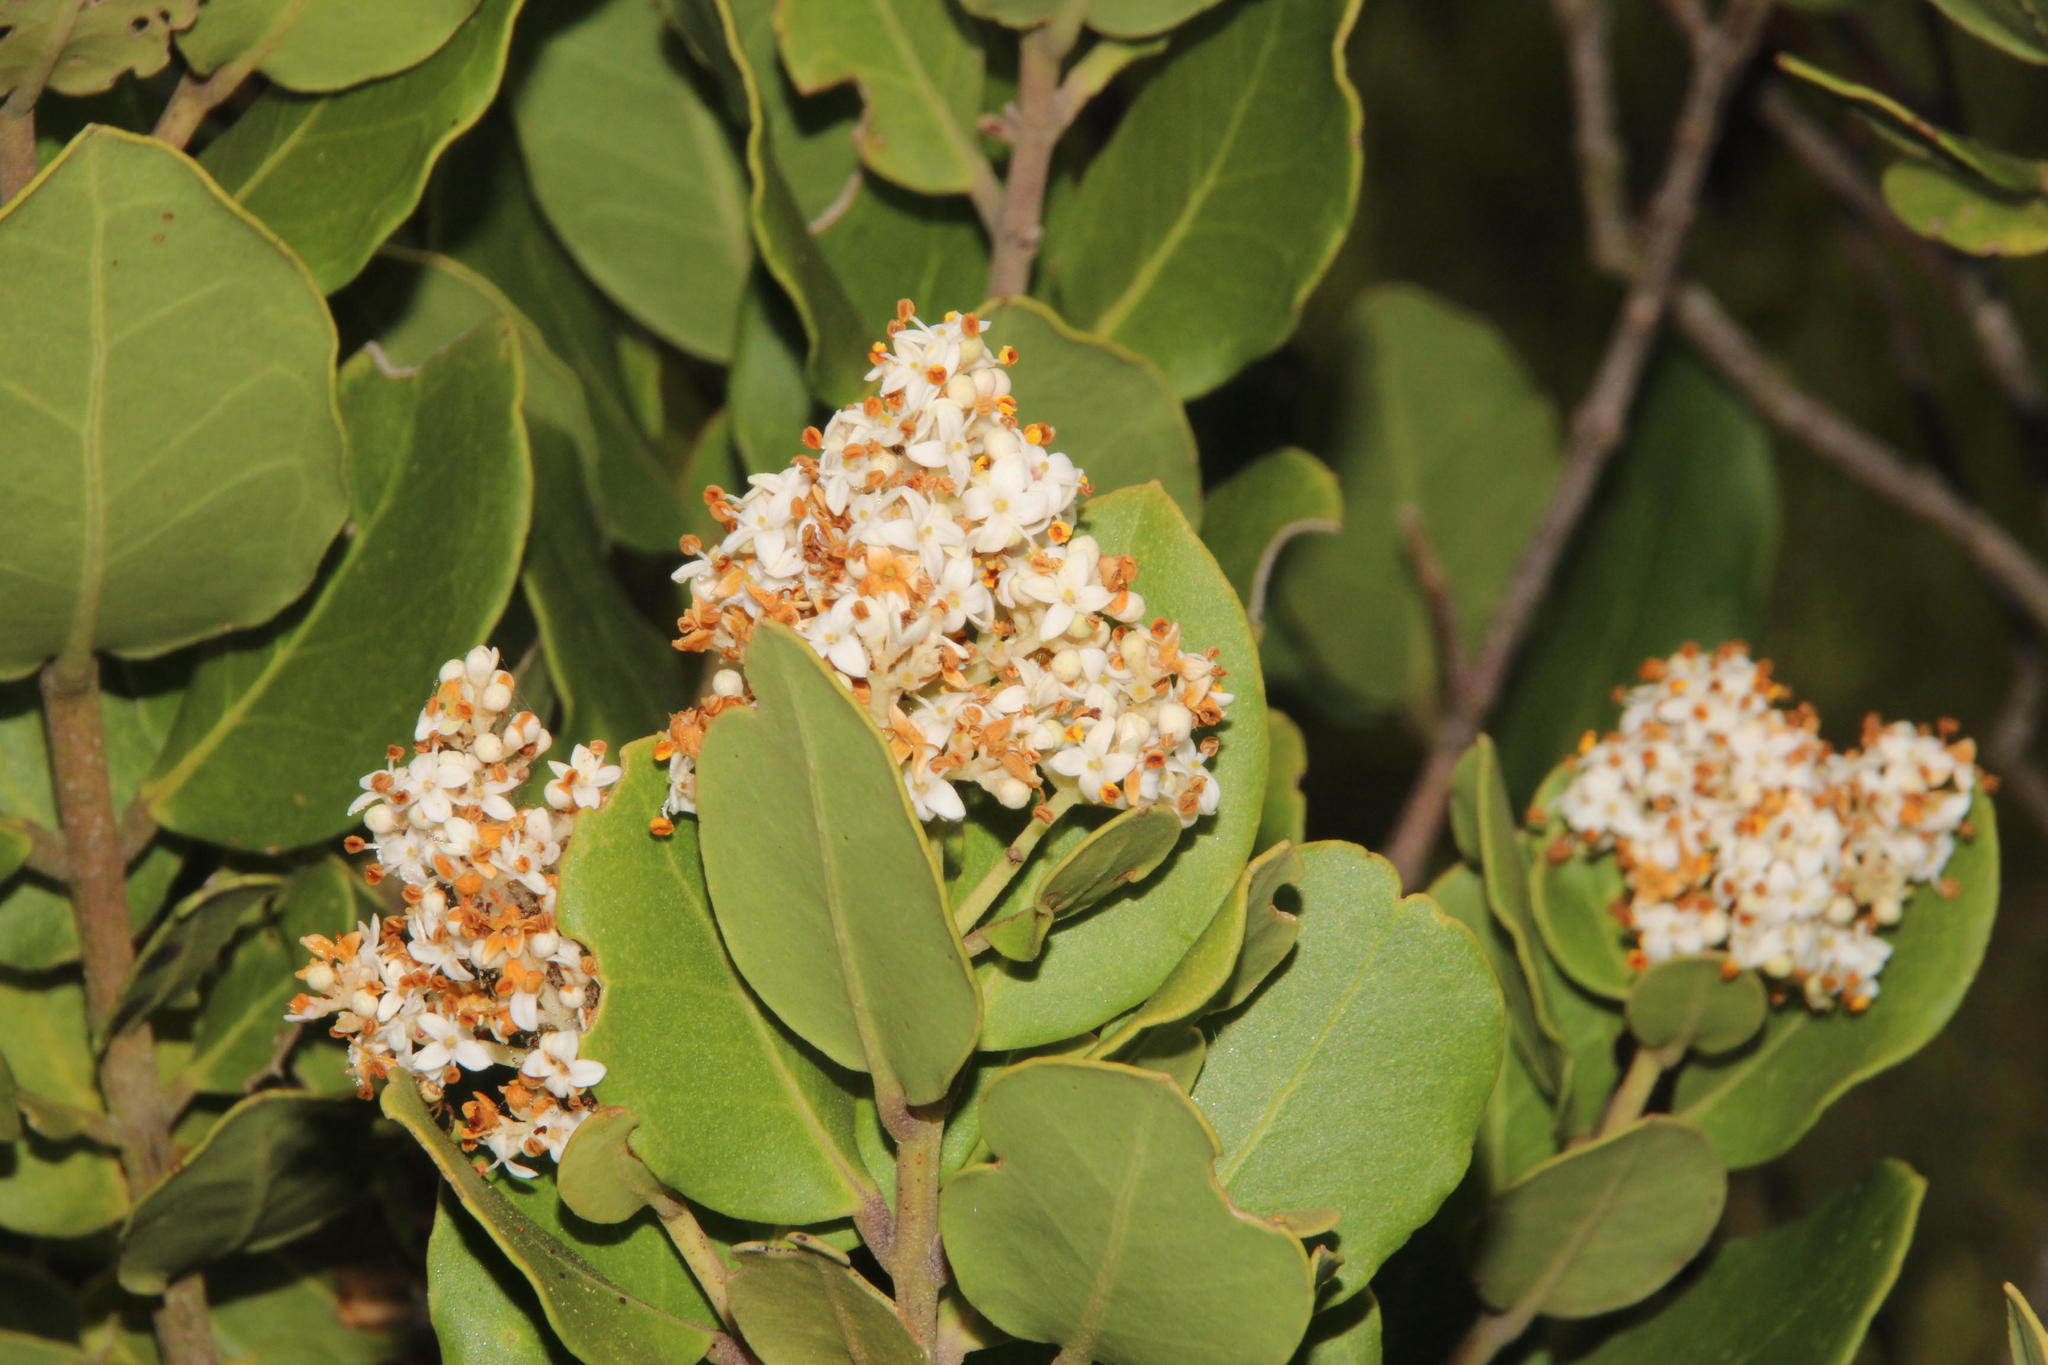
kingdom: Plantae
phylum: Tracheophyta
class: Magnoliopsida
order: Lamiales
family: Oleaceae
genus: Olea
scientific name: Olea capensis
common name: Black ironwood
